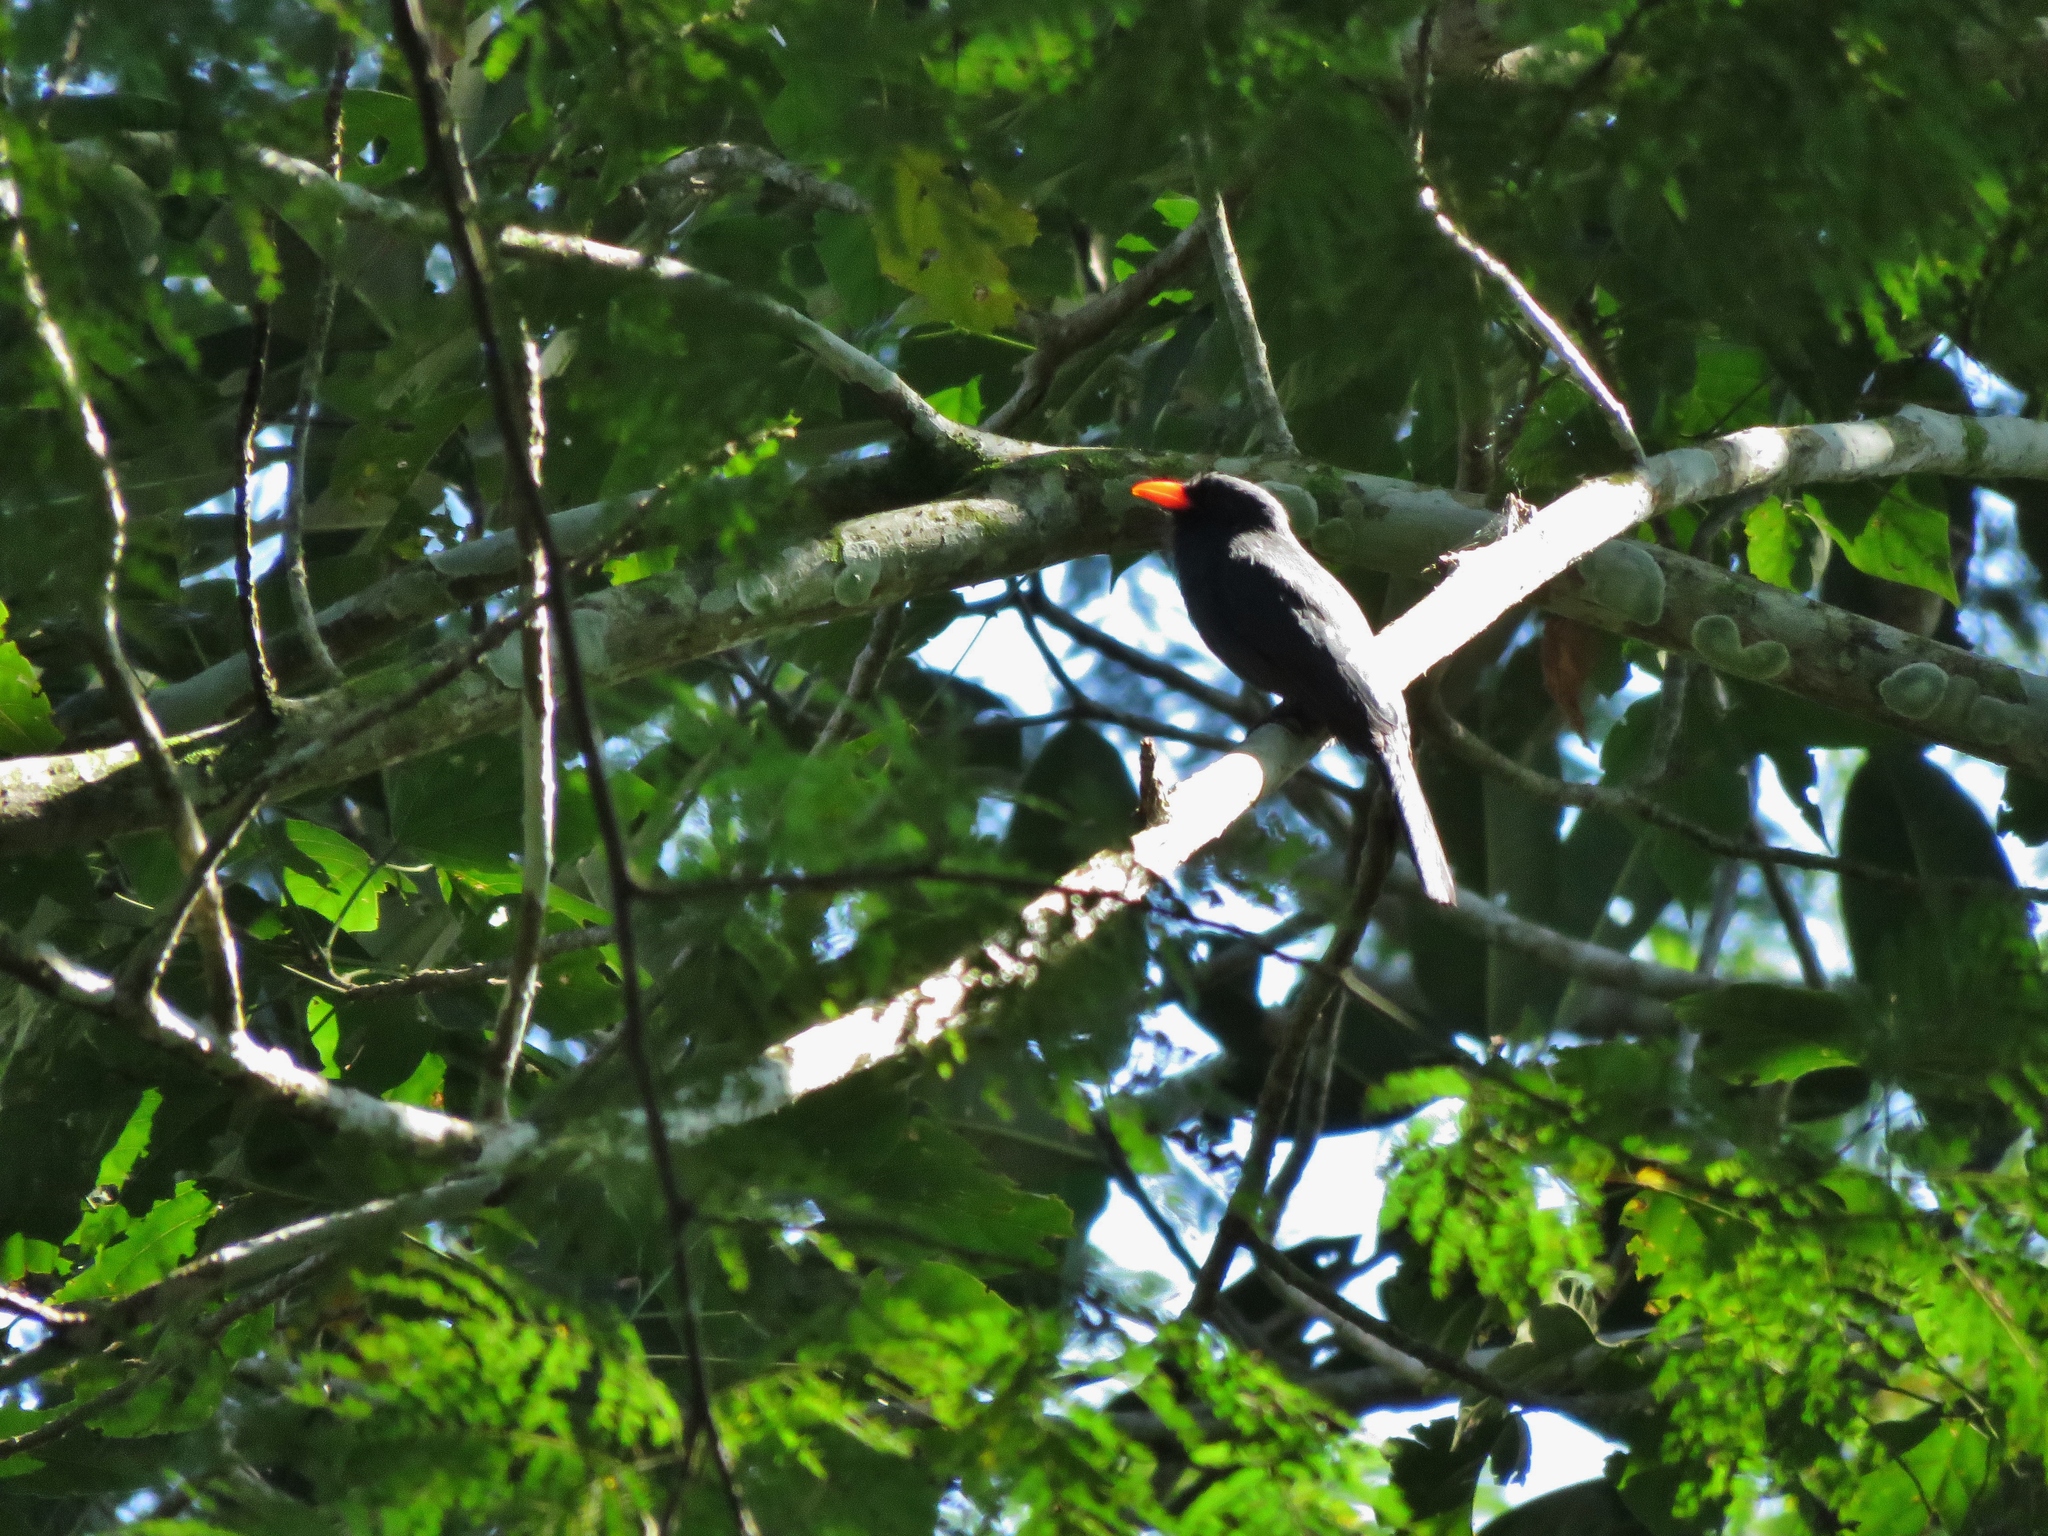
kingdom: Animalia
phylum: Chordata
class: Aves
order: Piciformes
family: Bucconidae
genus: Monasa
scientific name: Monasa nigrifrons
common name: Black-fronted nunbird
